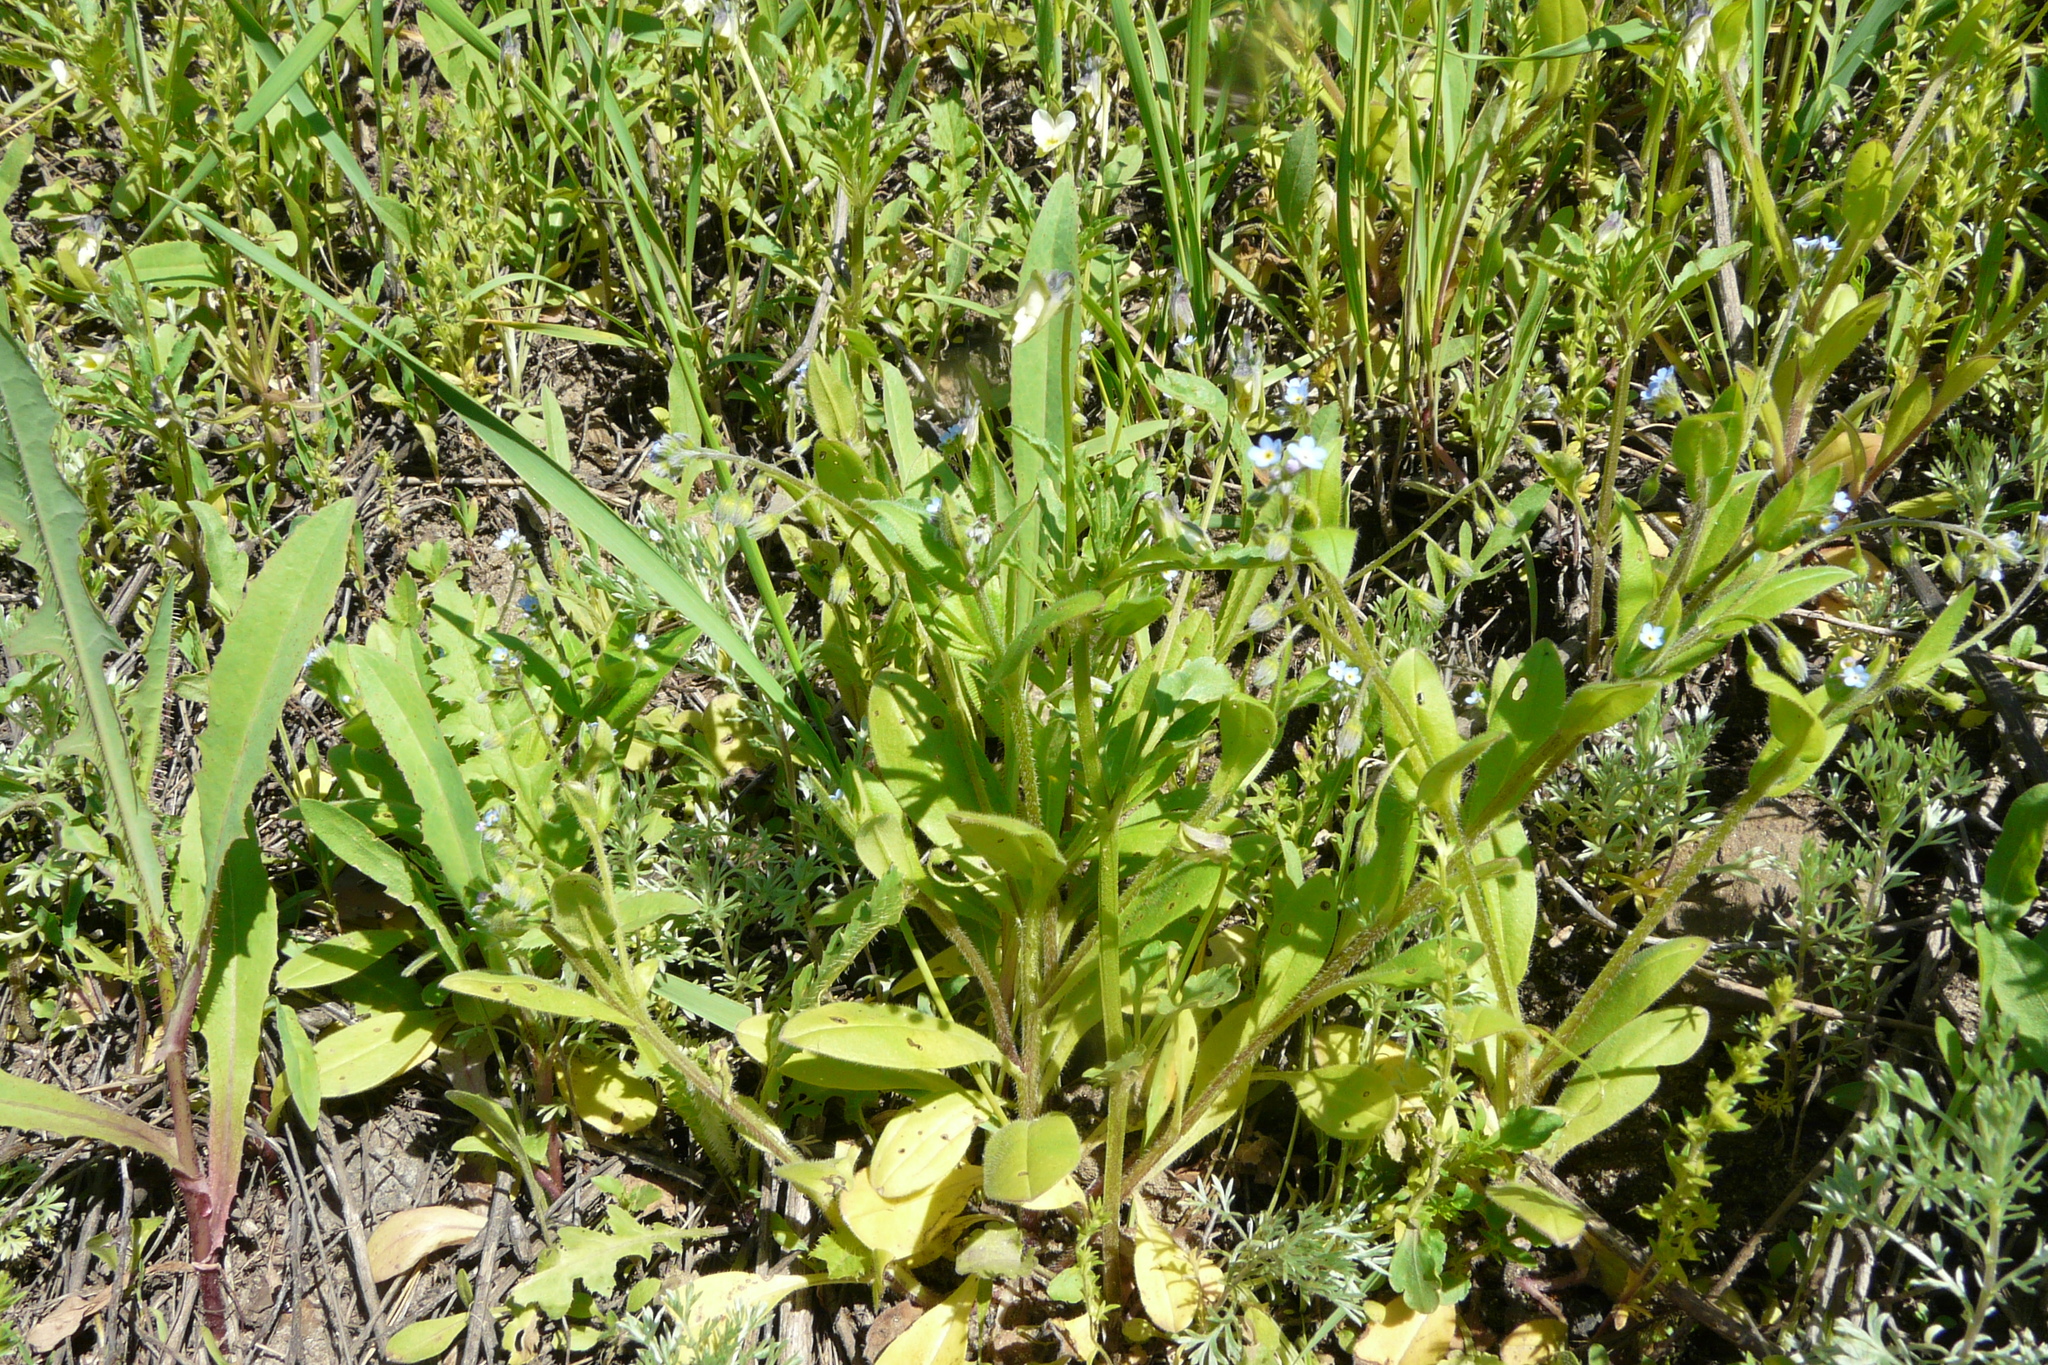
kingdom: Plantae
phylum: Tracheophyta
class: Magnoliopsida
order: Boraginales
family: Boraginaceae
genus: Myosotis
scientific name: Myosotis sparsiflora
